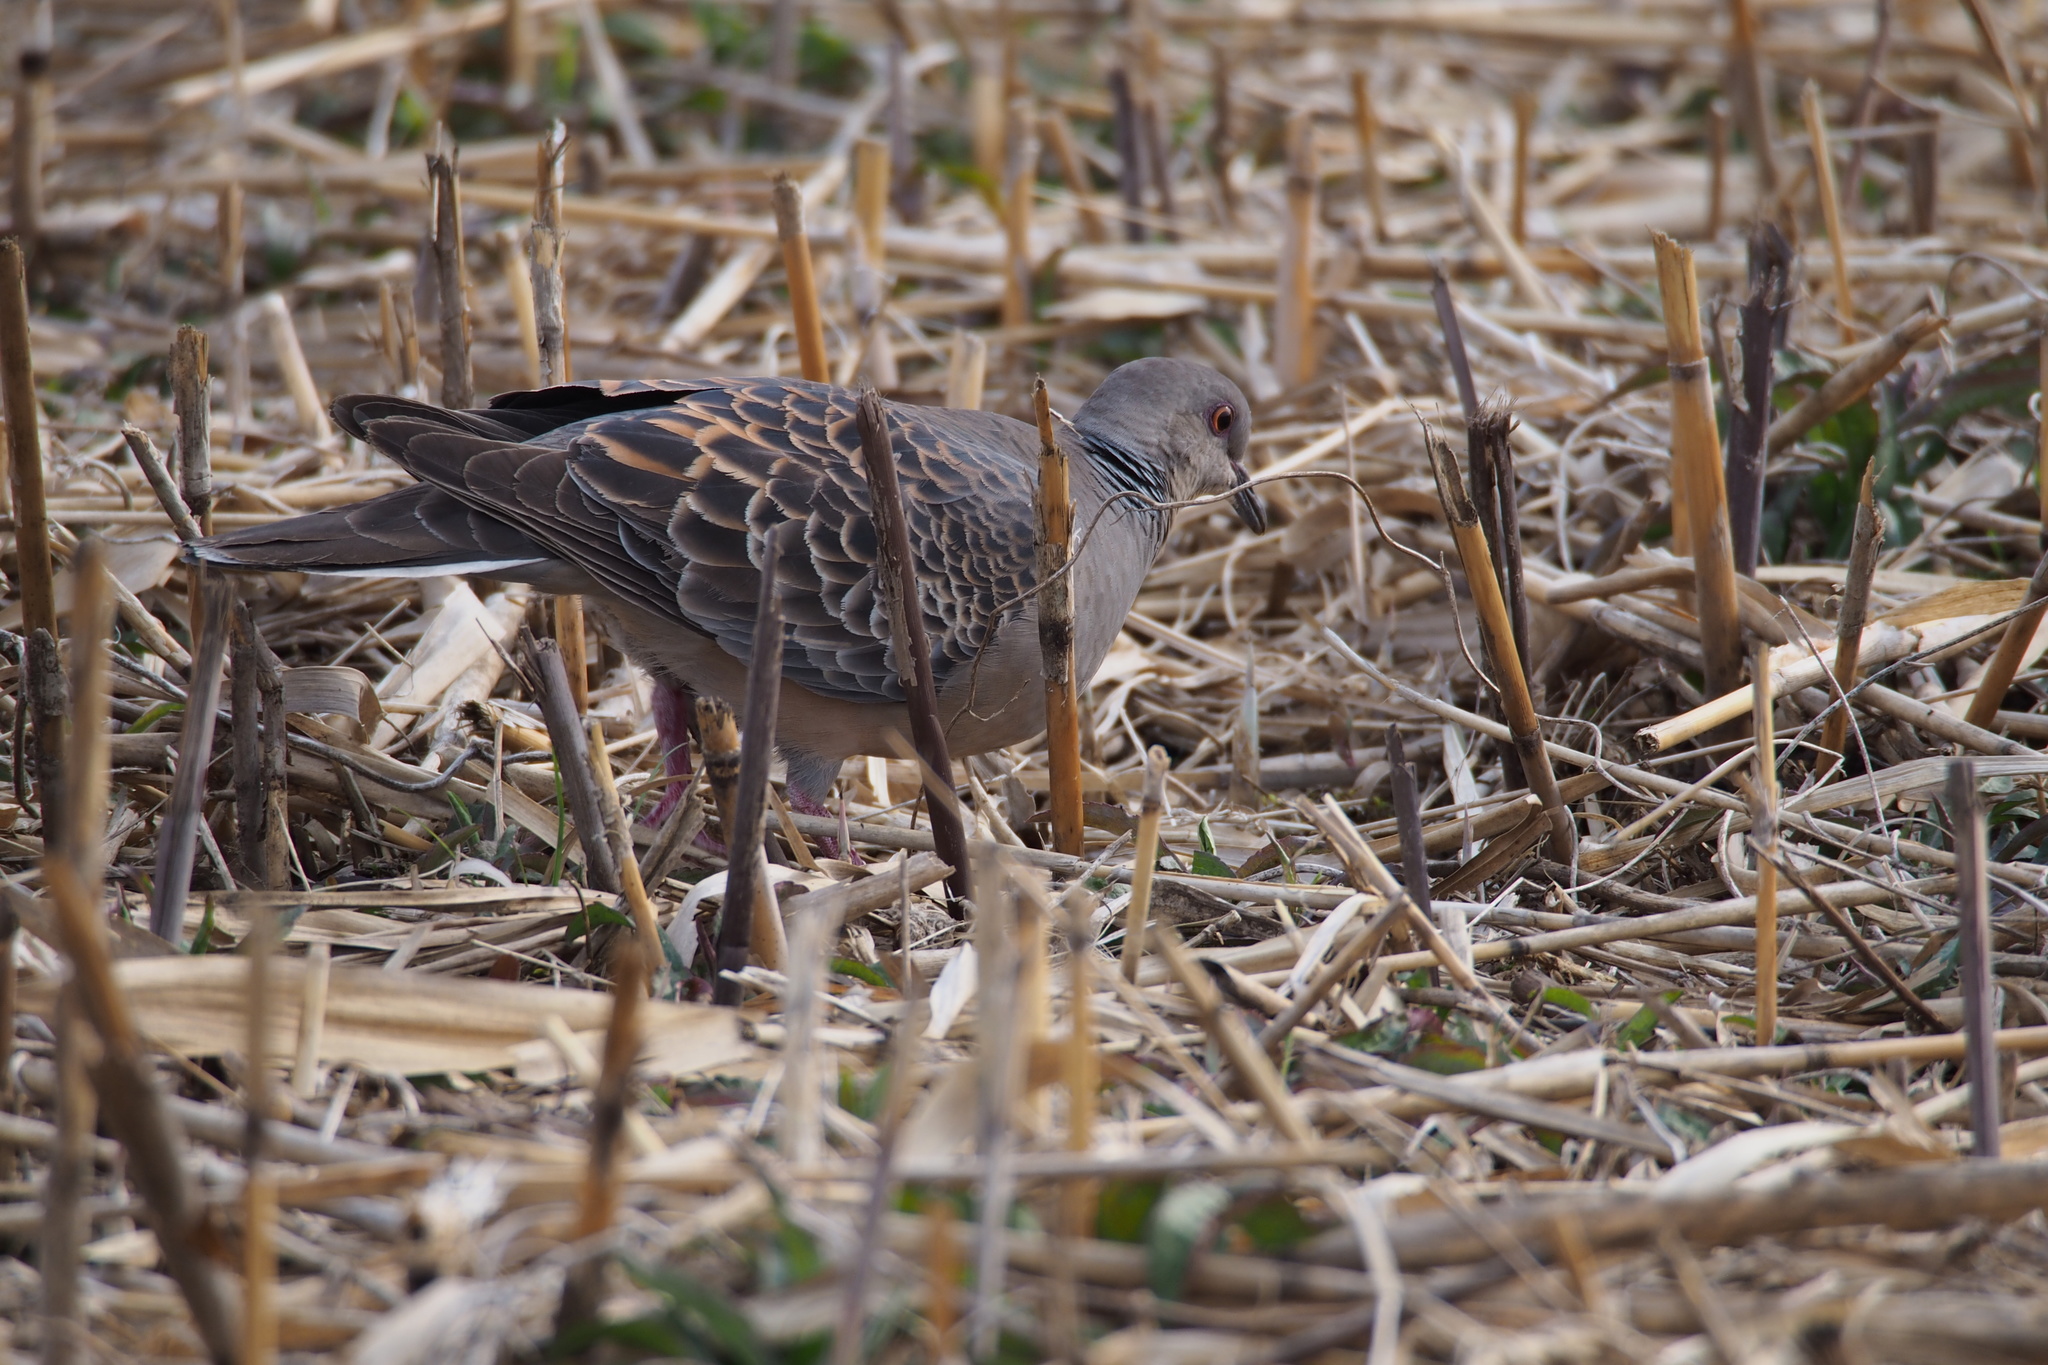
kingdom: Animalia
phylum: Chordata
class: Aves
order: Columbiformes
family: Columbidae
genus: Streptopelia
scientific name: Streptopelia orientalis
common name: Oriental turtle dove
